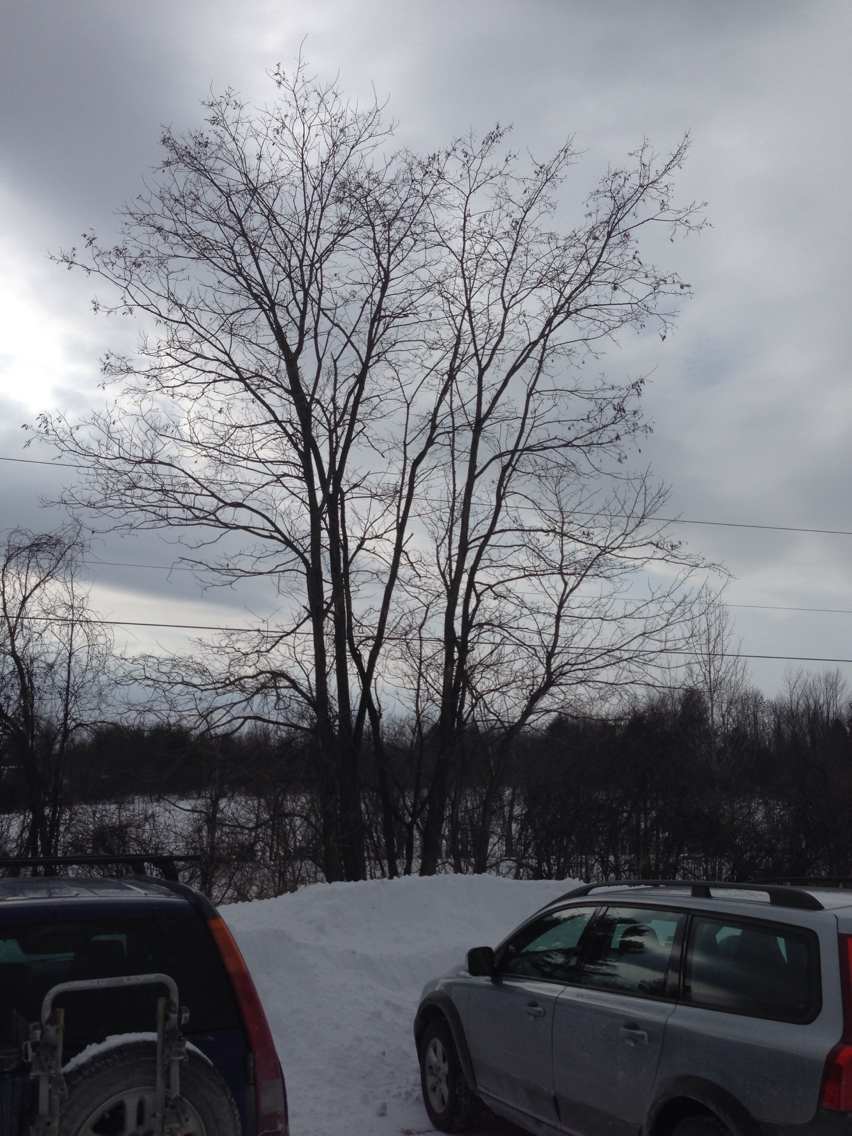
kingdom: Plantae
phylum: Tracheophyta
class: Magnoliopsida
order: Fabales
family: Fabaceae
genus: Robinia
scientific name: Robinia pseudoacacia
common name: Black locust
